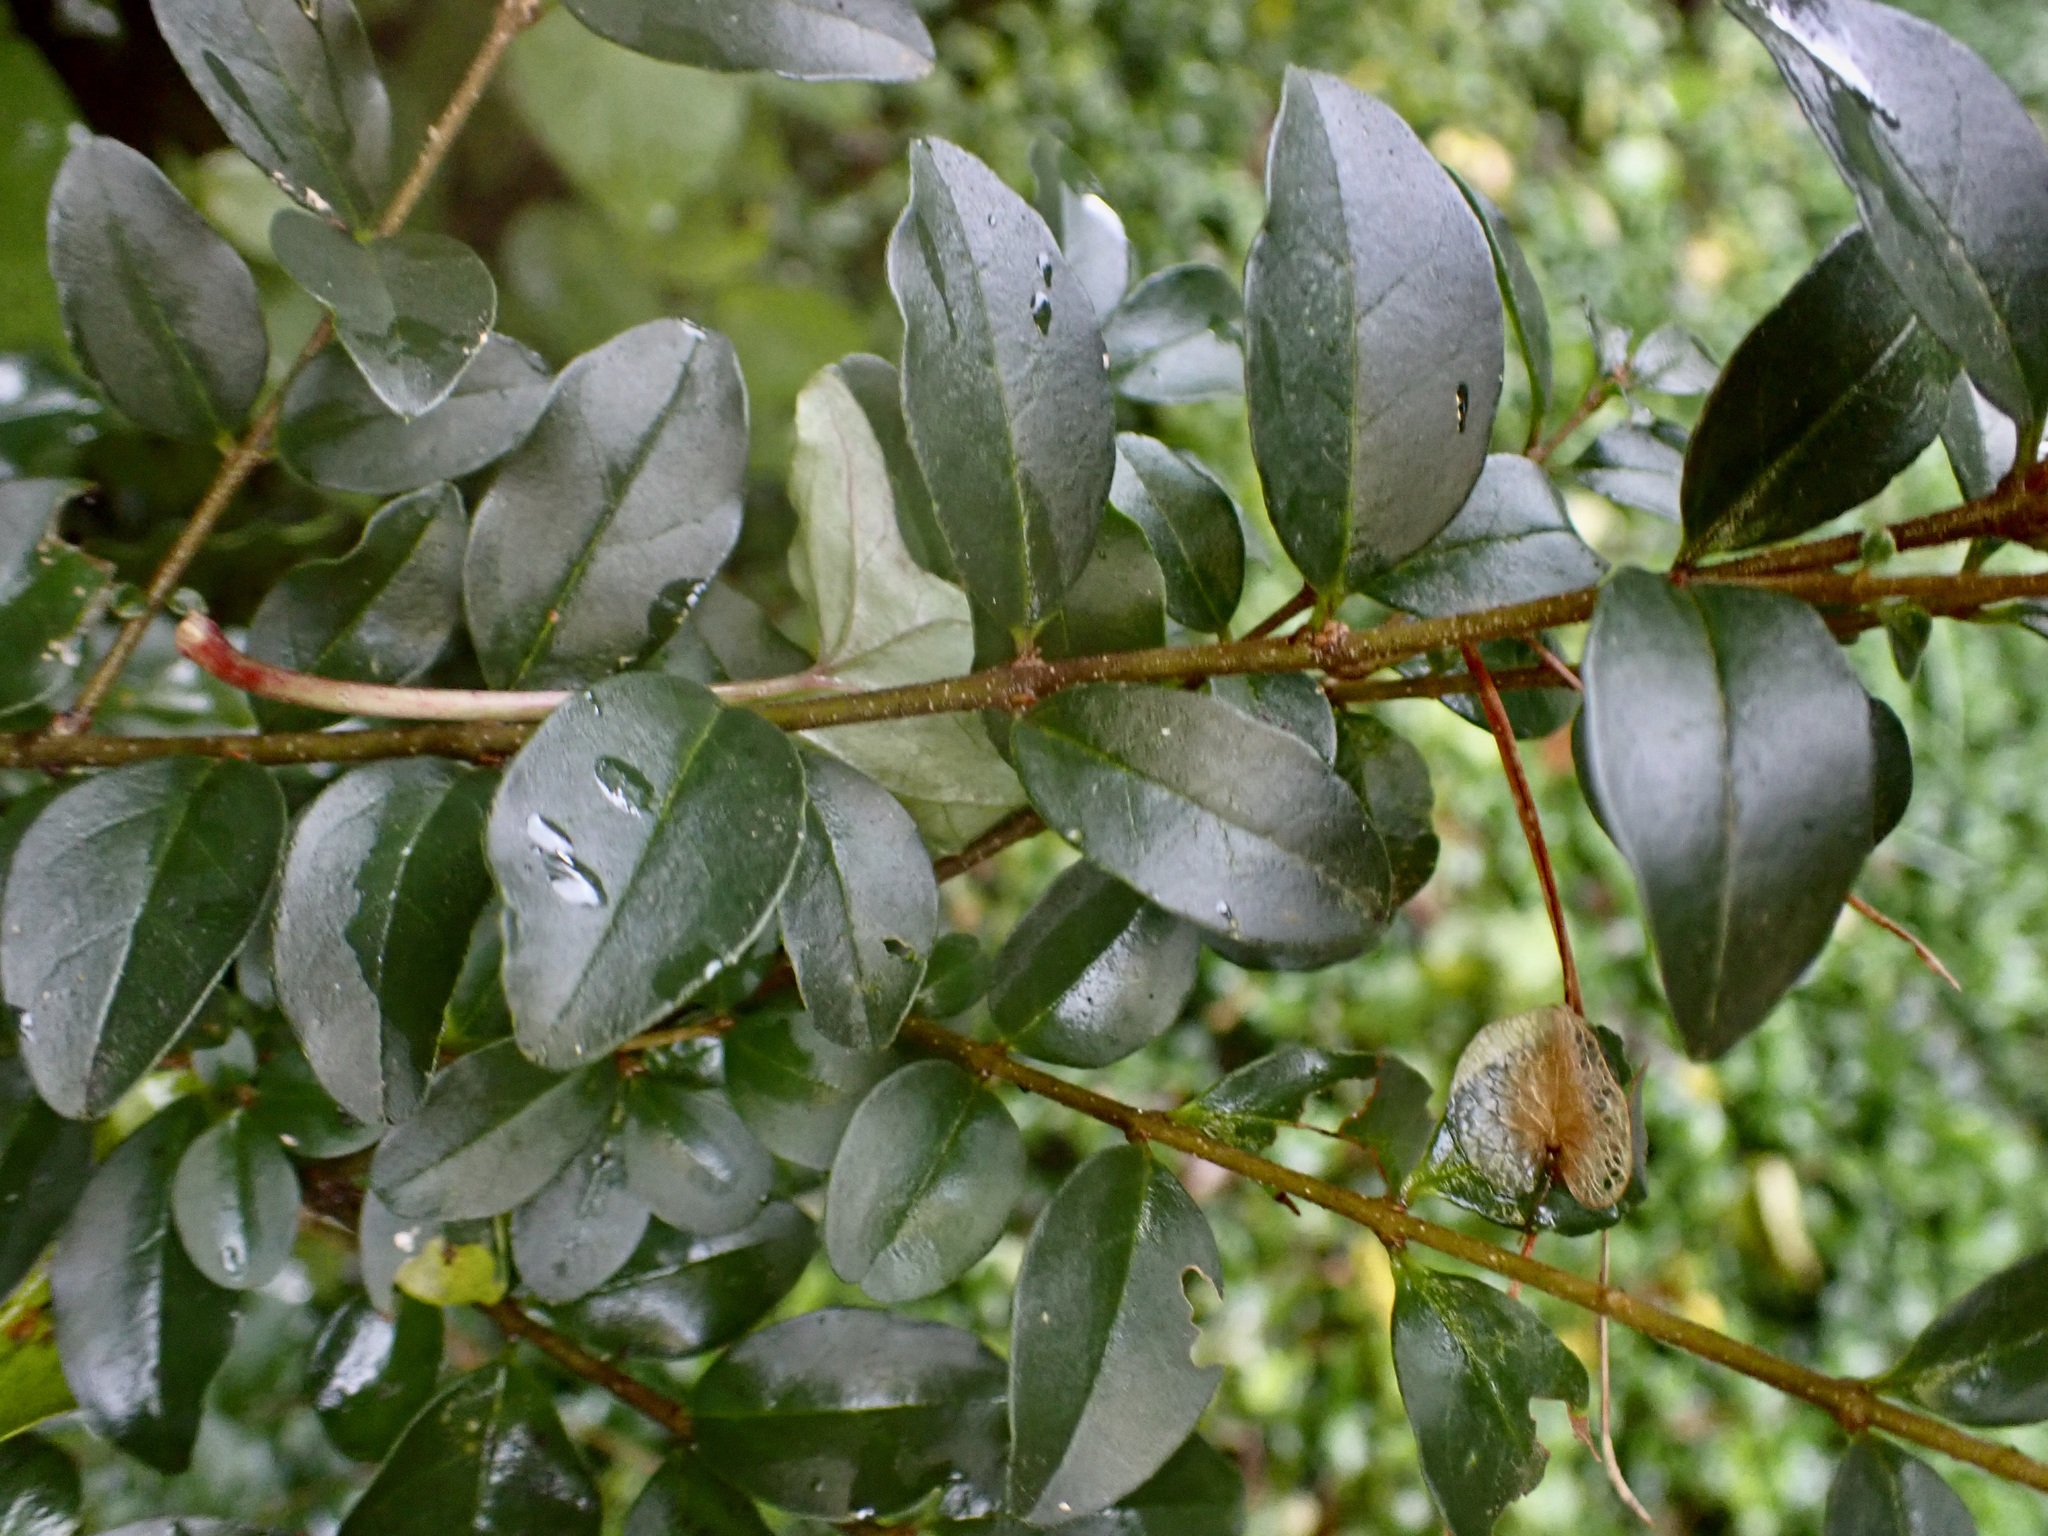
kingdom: Plantae
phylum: Tracheophyta
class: Magnoliopsida
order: Lamiales
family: Oleaceae
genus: Ligustrum
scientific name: Ligustrum sinense
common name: Chinese privet
